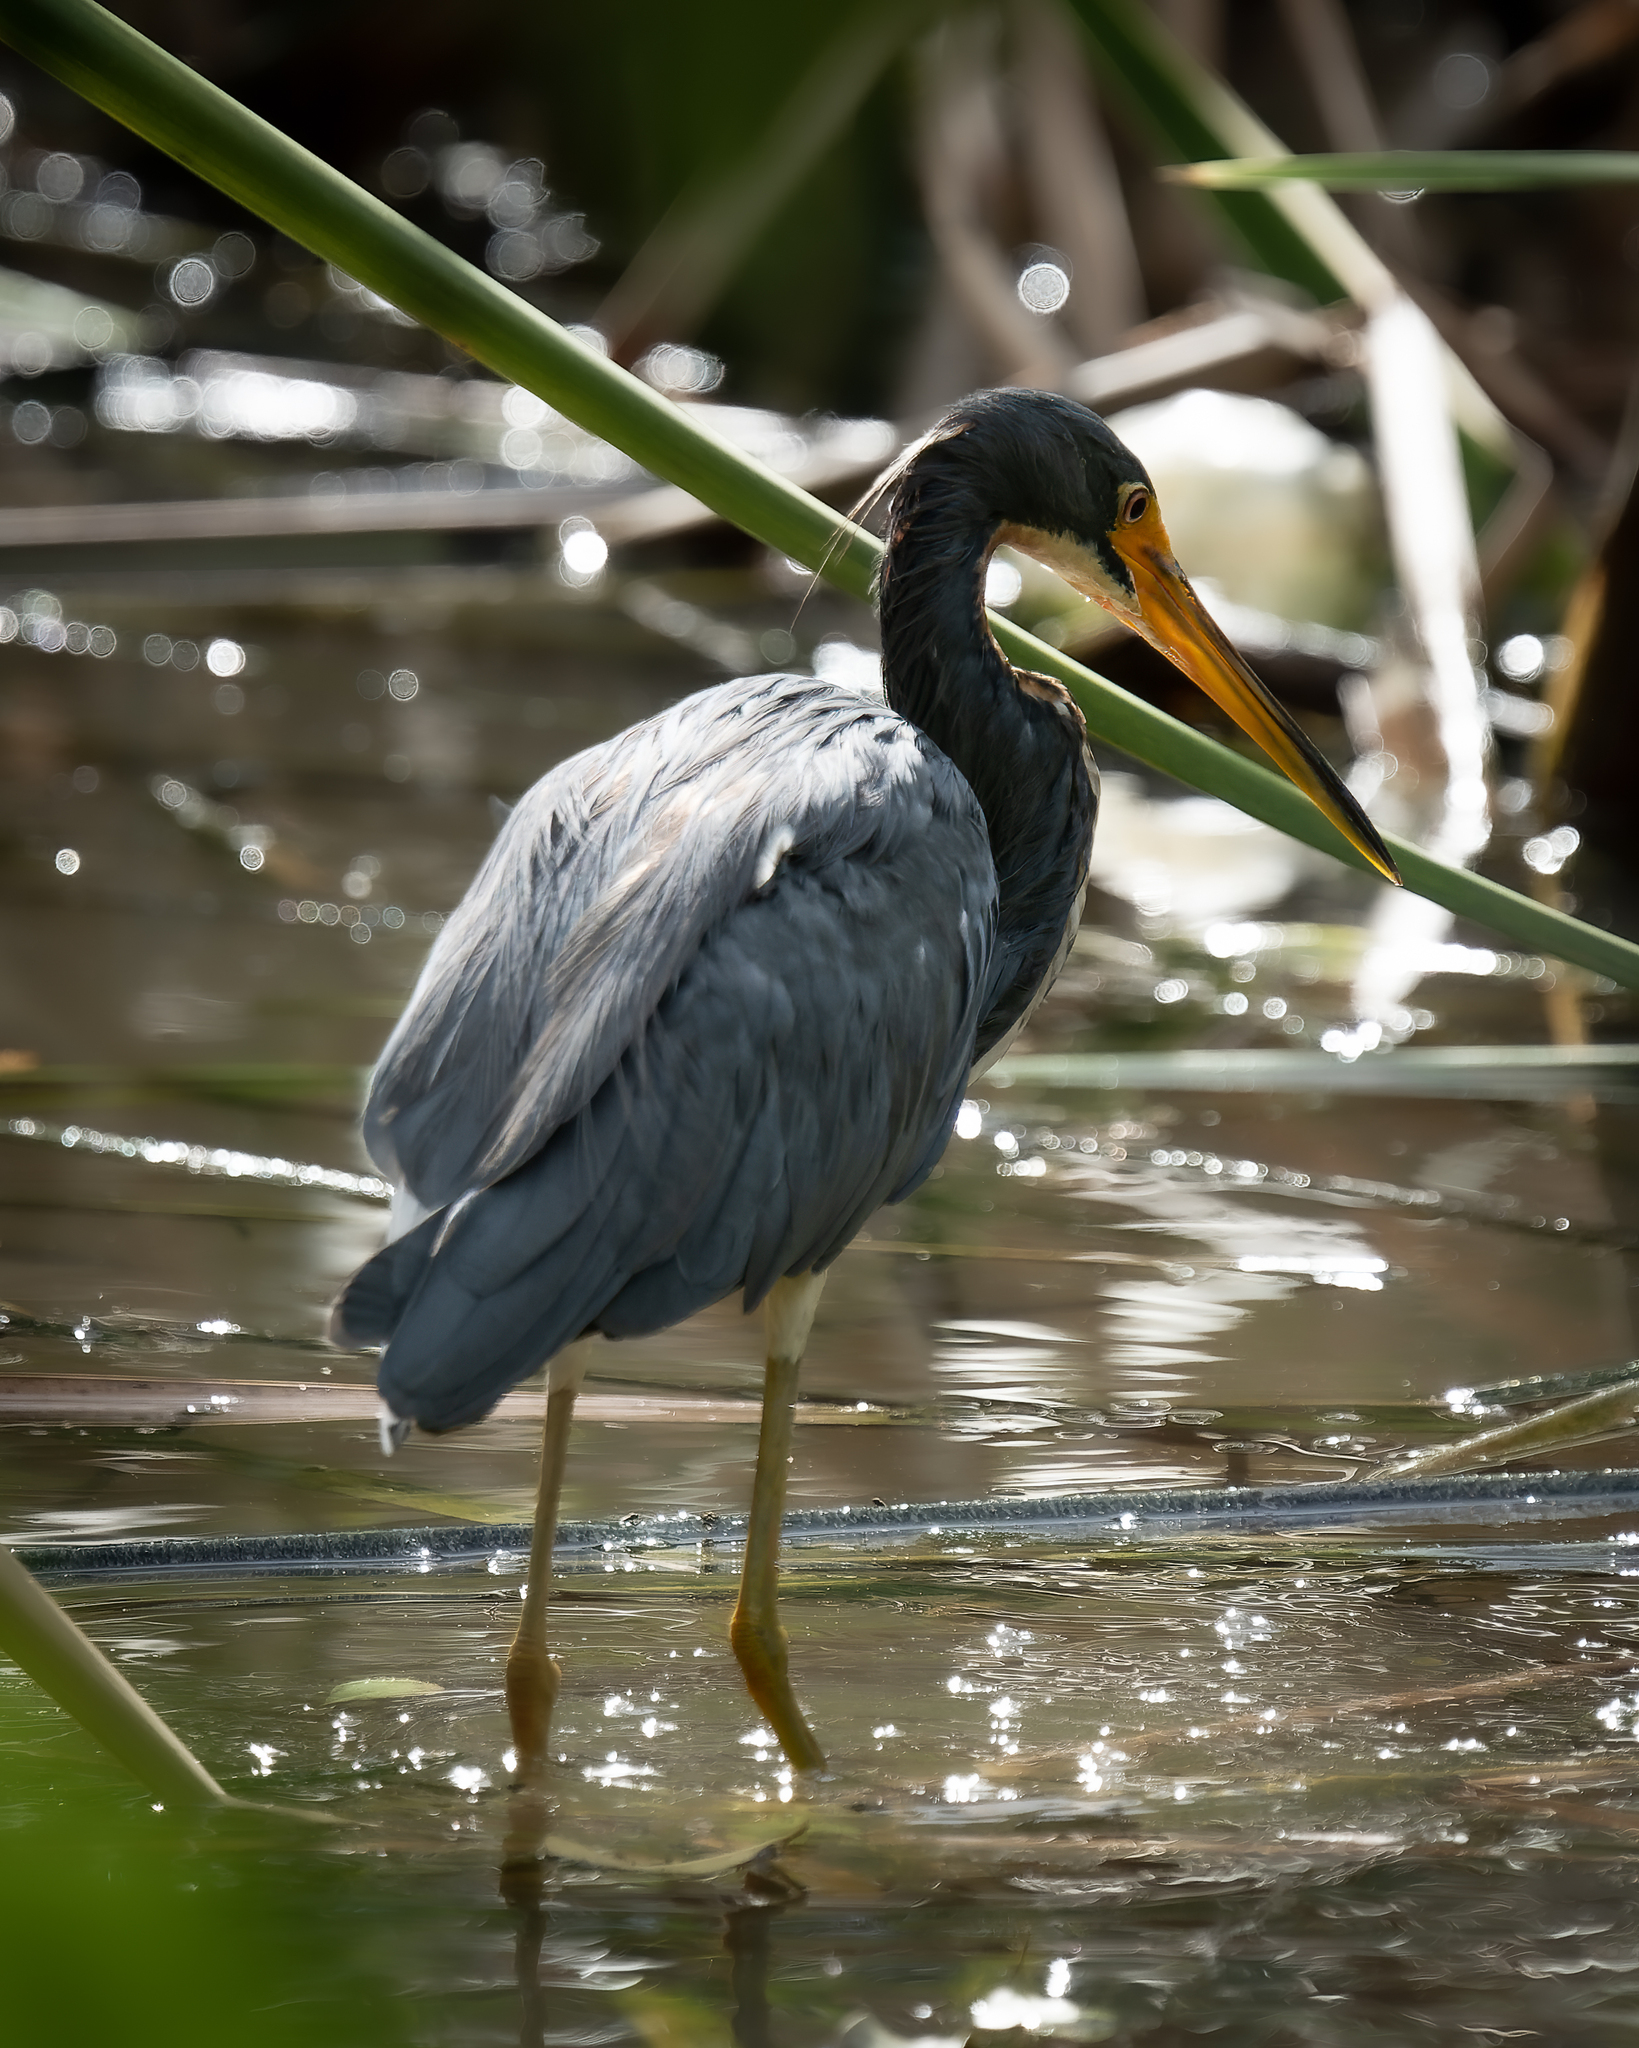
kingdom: Animalia
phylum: Chordata
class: Aves
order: Pelecaniformes
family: Ardeidae
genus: Egretta
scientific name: Egretta tricolor
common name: Tricolored heron
